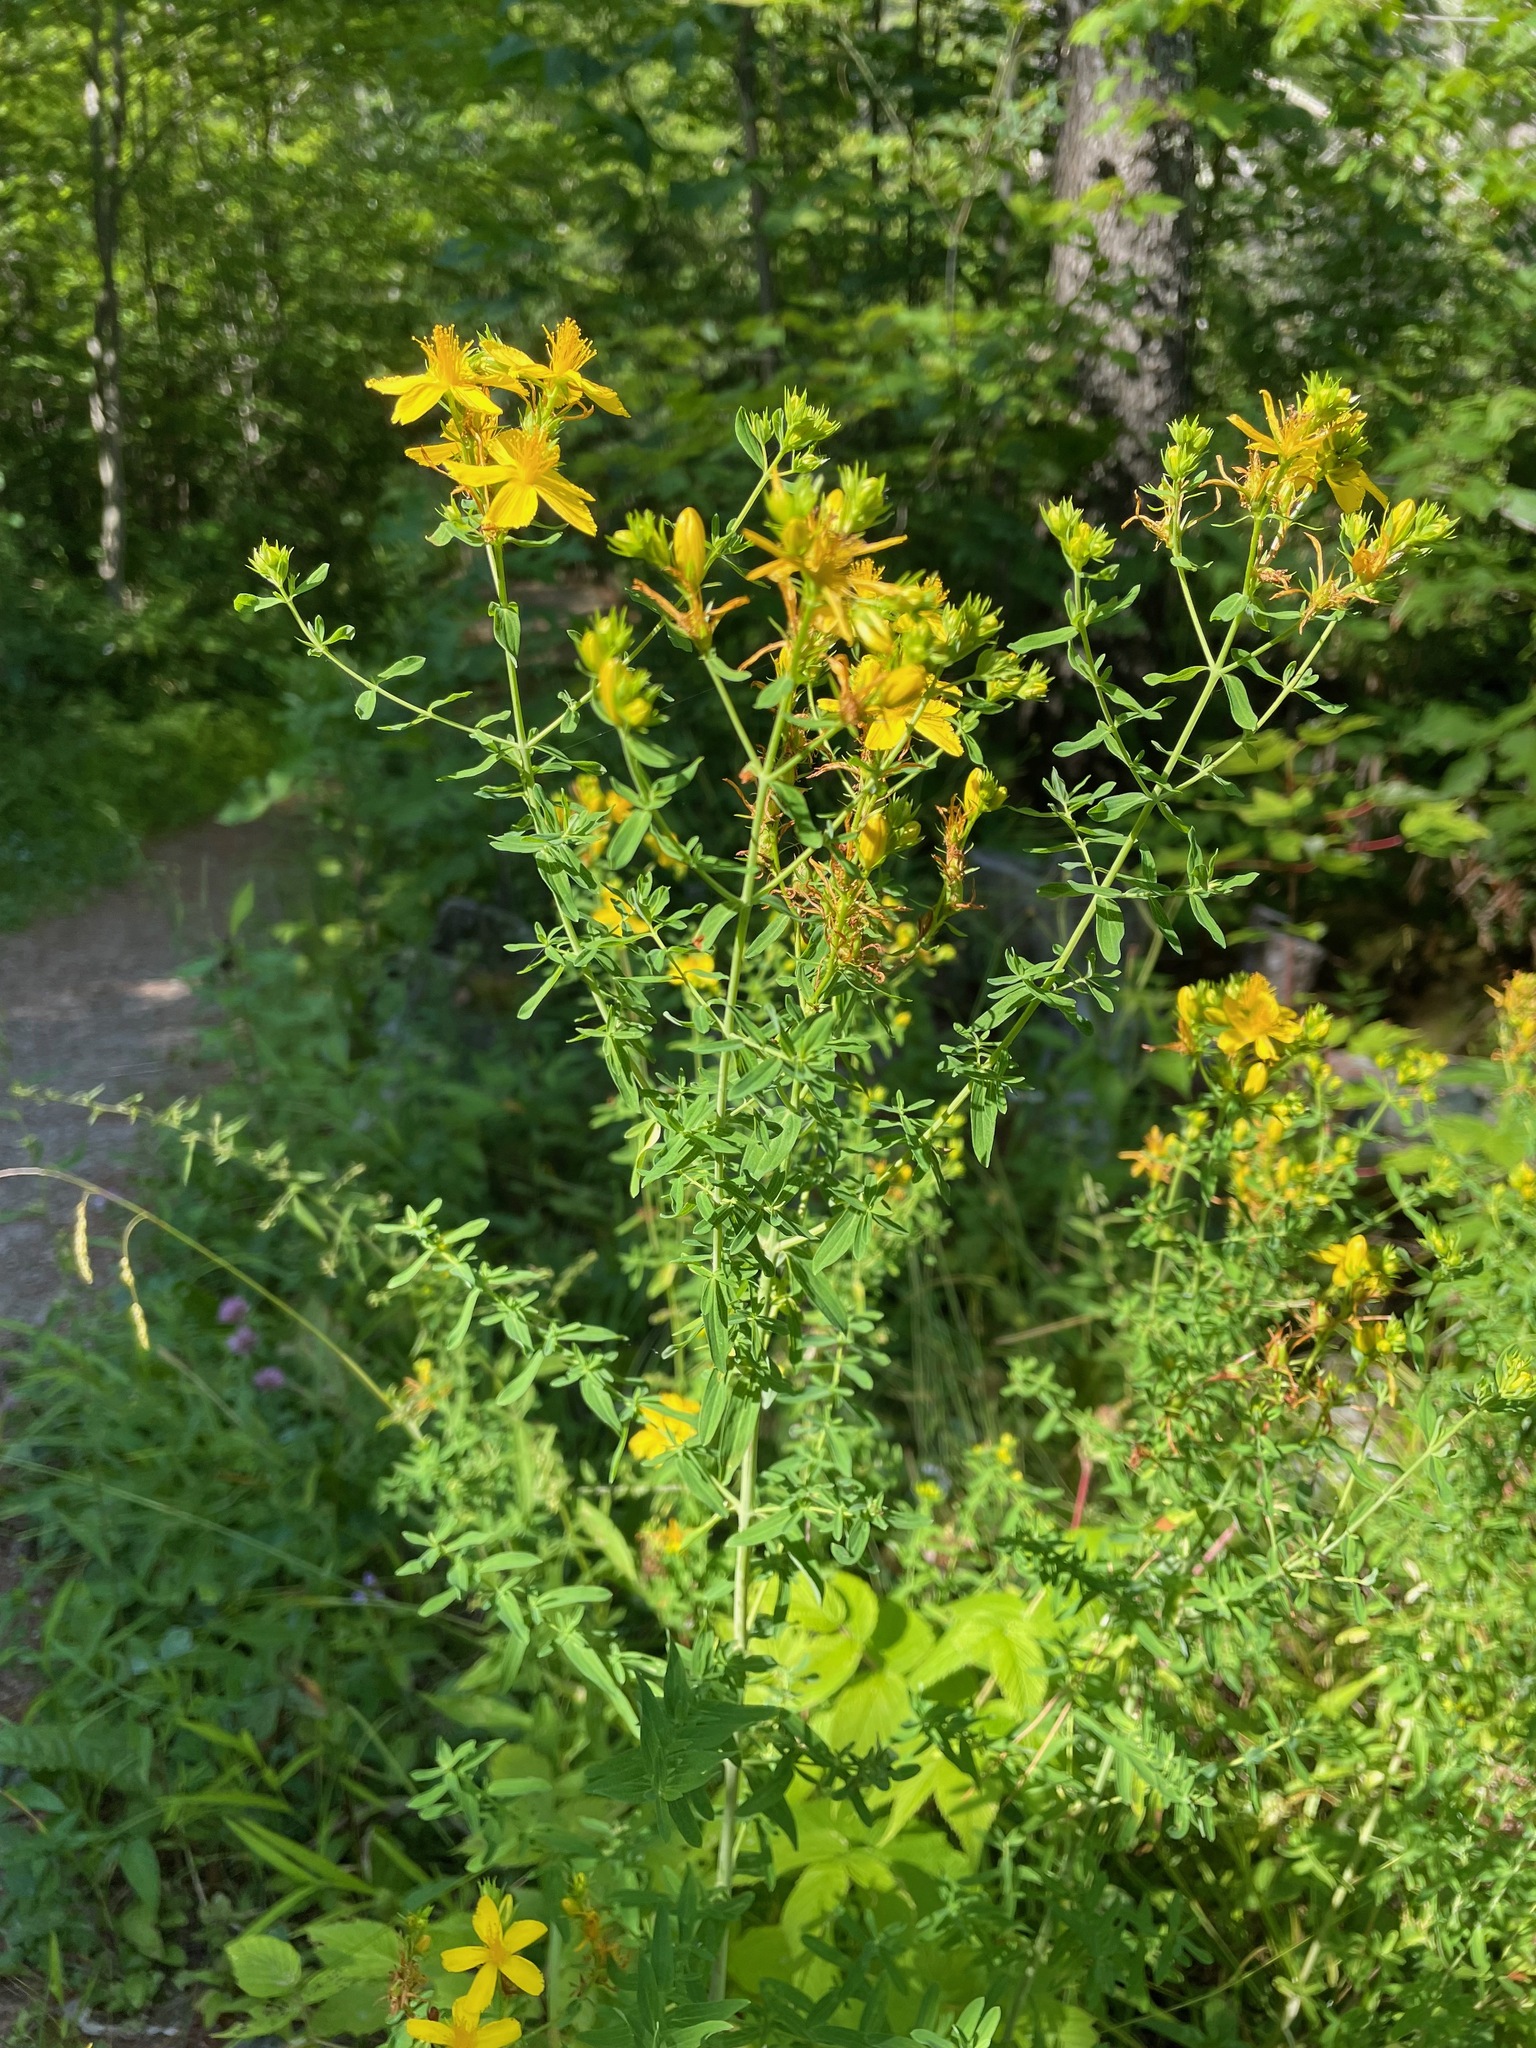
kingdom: Plantae
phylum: Tracheophyta
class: Magnoliopsida
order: Malpighiales
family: Hypericaceae
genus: Hypericum
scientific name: Hypericum perforatum
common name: Common st. johnswort
